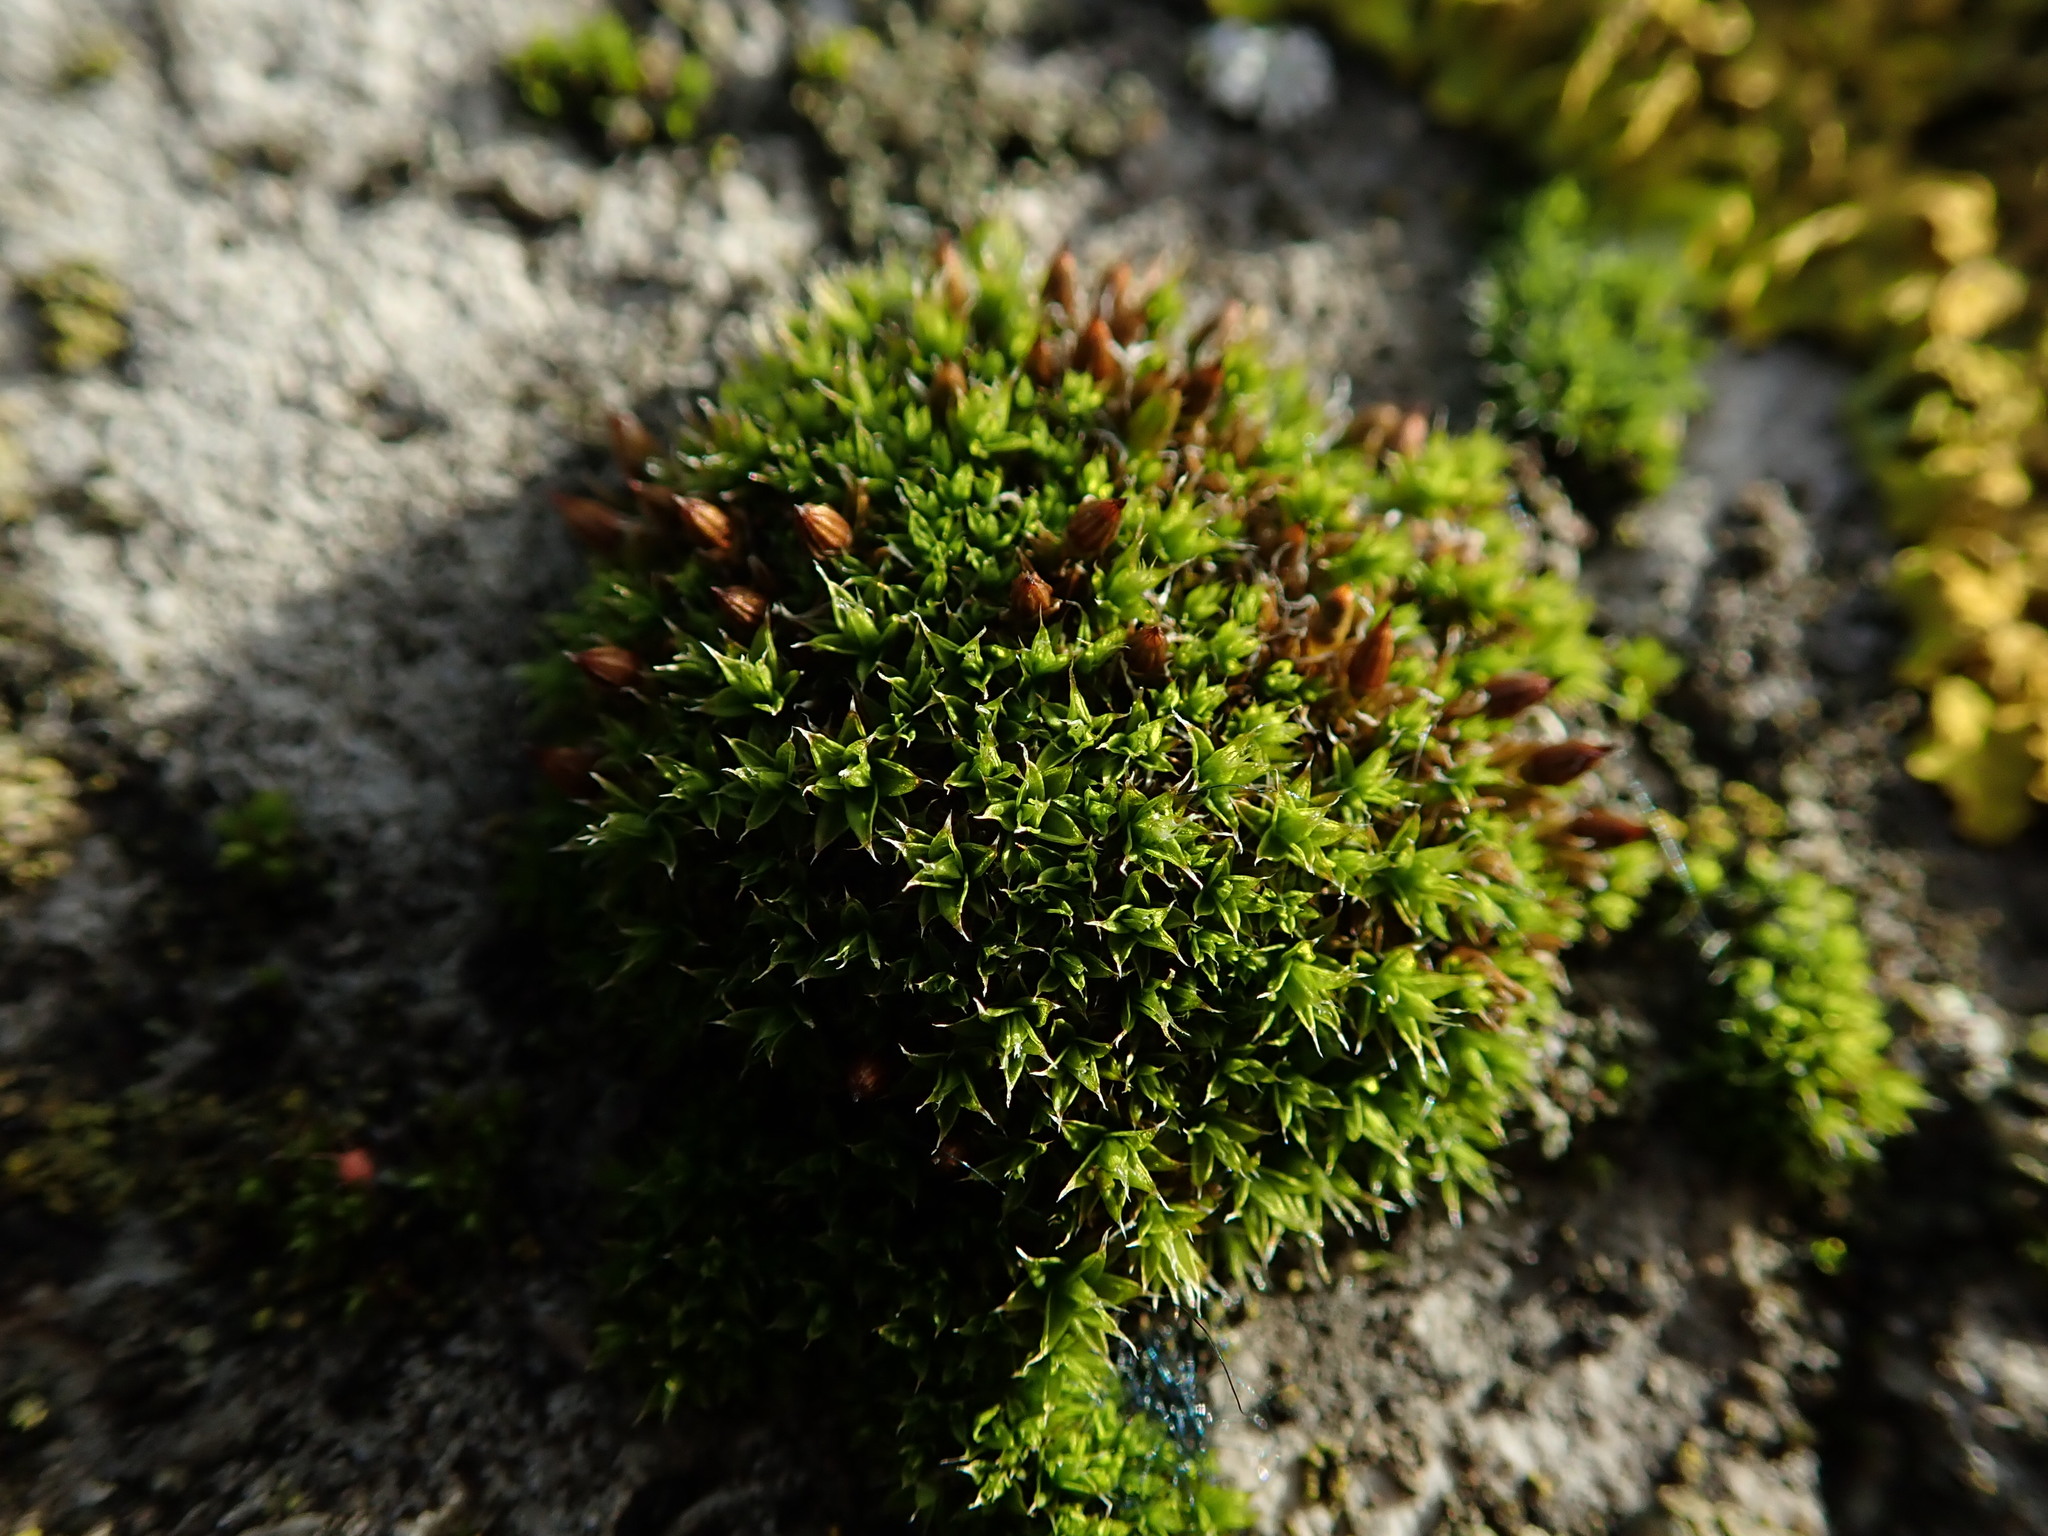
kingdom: Plantae
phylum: Bryophyta
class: Bryopsida
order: Orthotrichales
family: Orthotrichaceae
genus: Orthotrichum
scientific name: Orthotrichum diaphanum
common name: White-tipped bristle-moss
